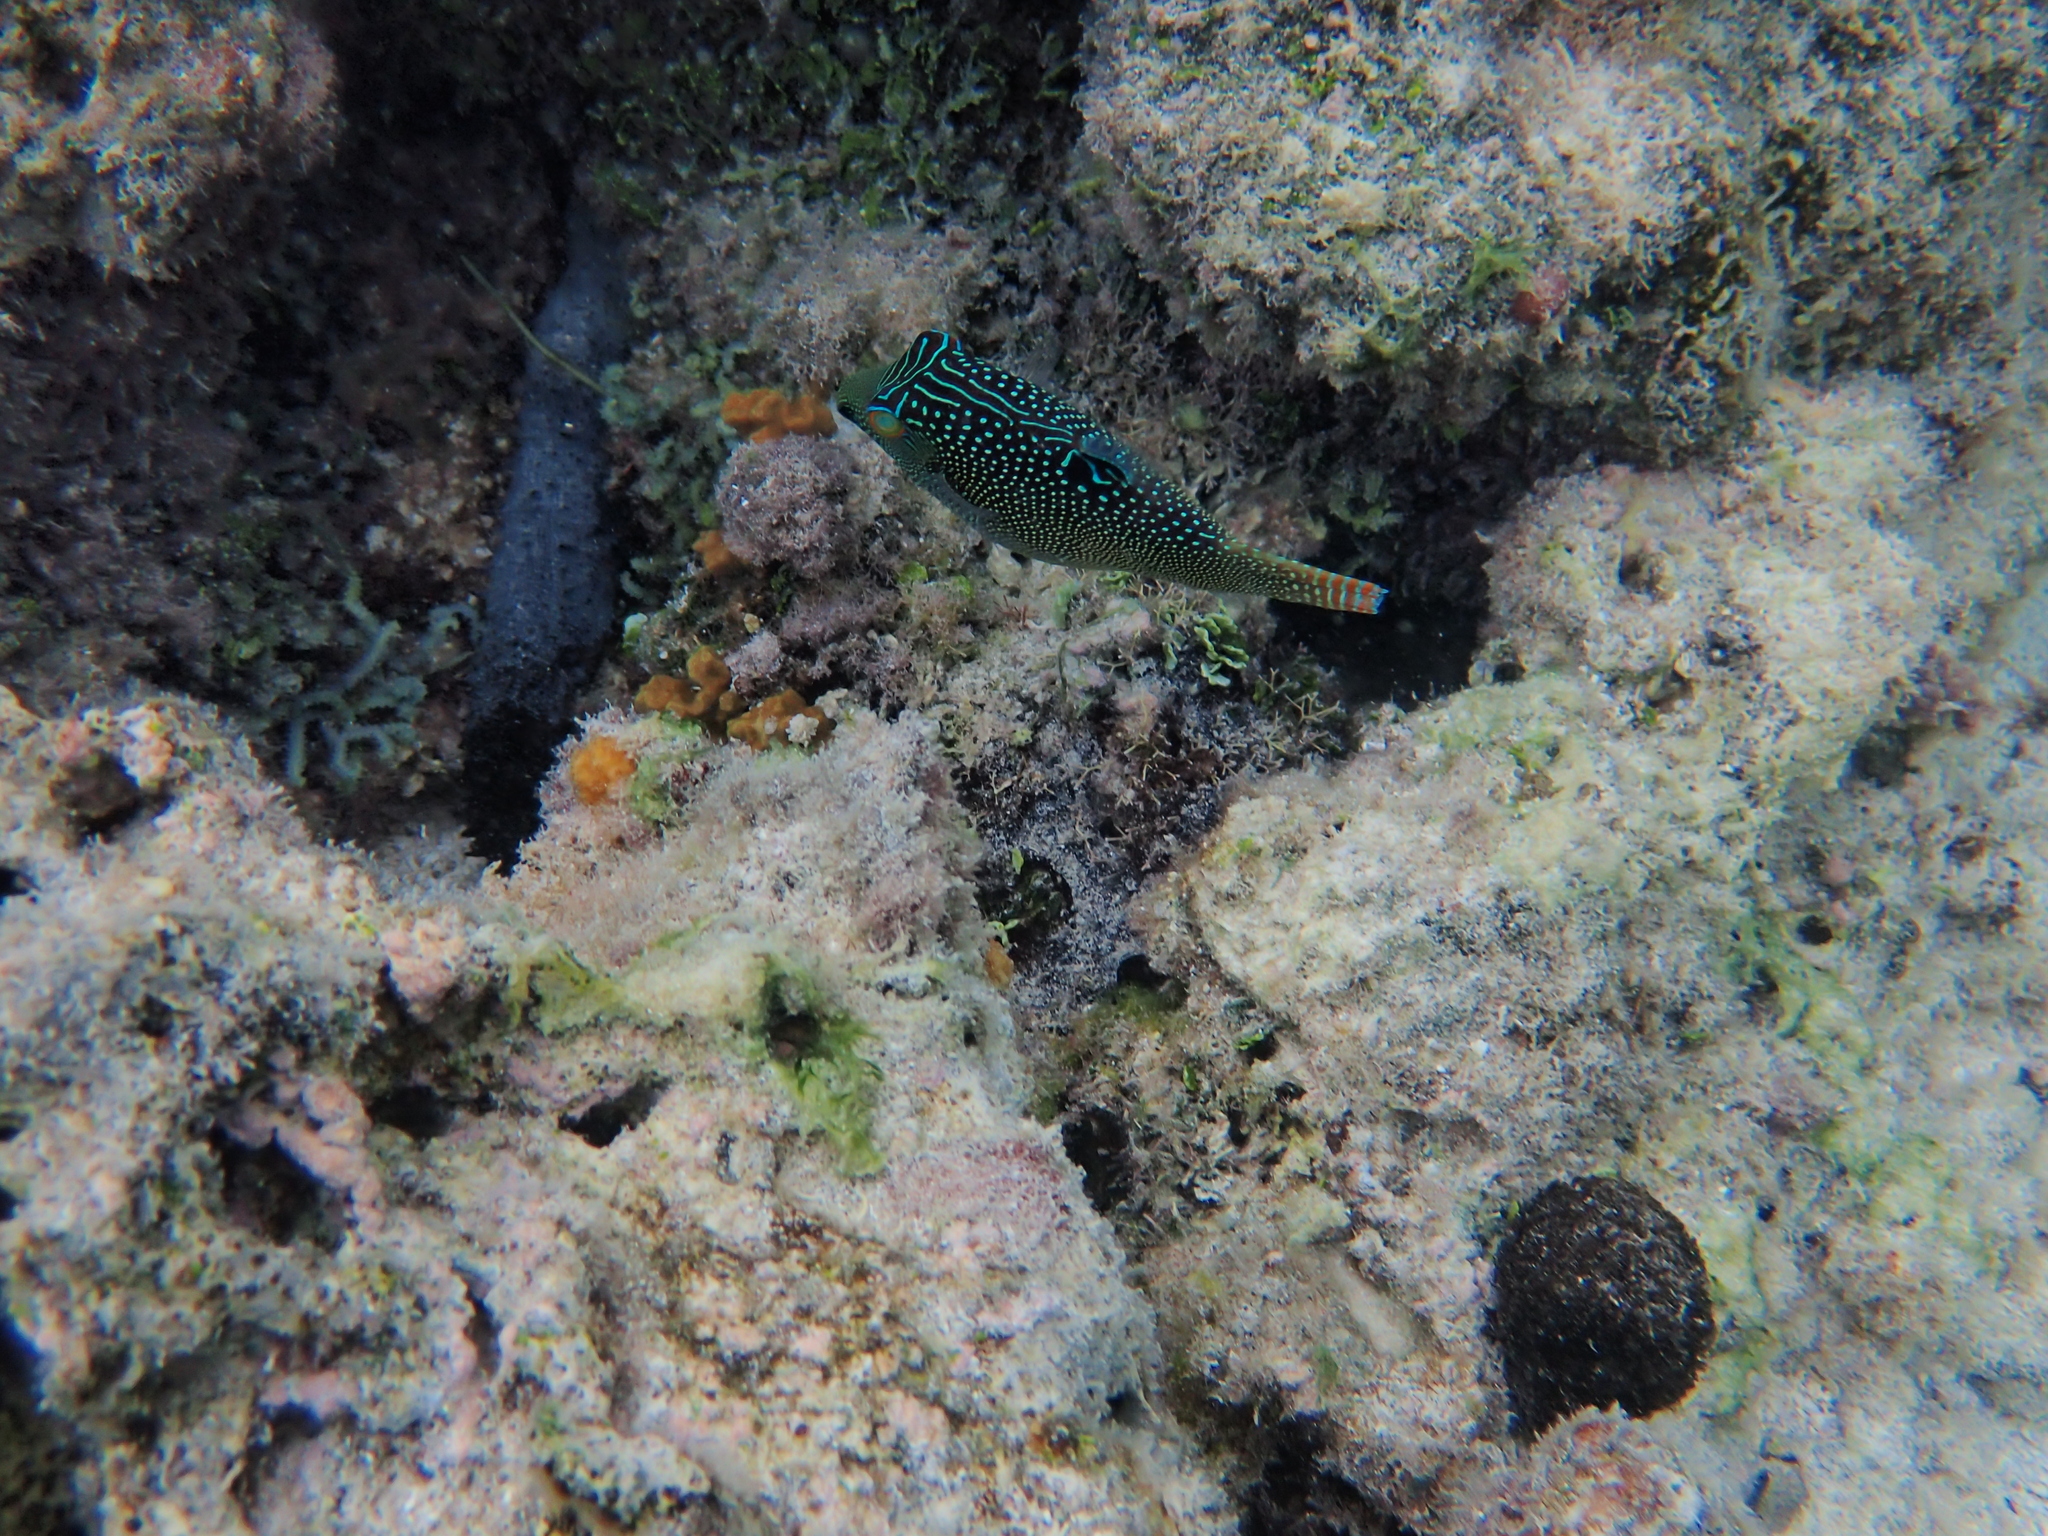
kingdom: Animalia
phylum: Chordata
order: Tetraodontiformes
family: Tetraodontidae
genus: Canthigaster
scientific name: Canthigaster solandri
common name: False-eye toby
